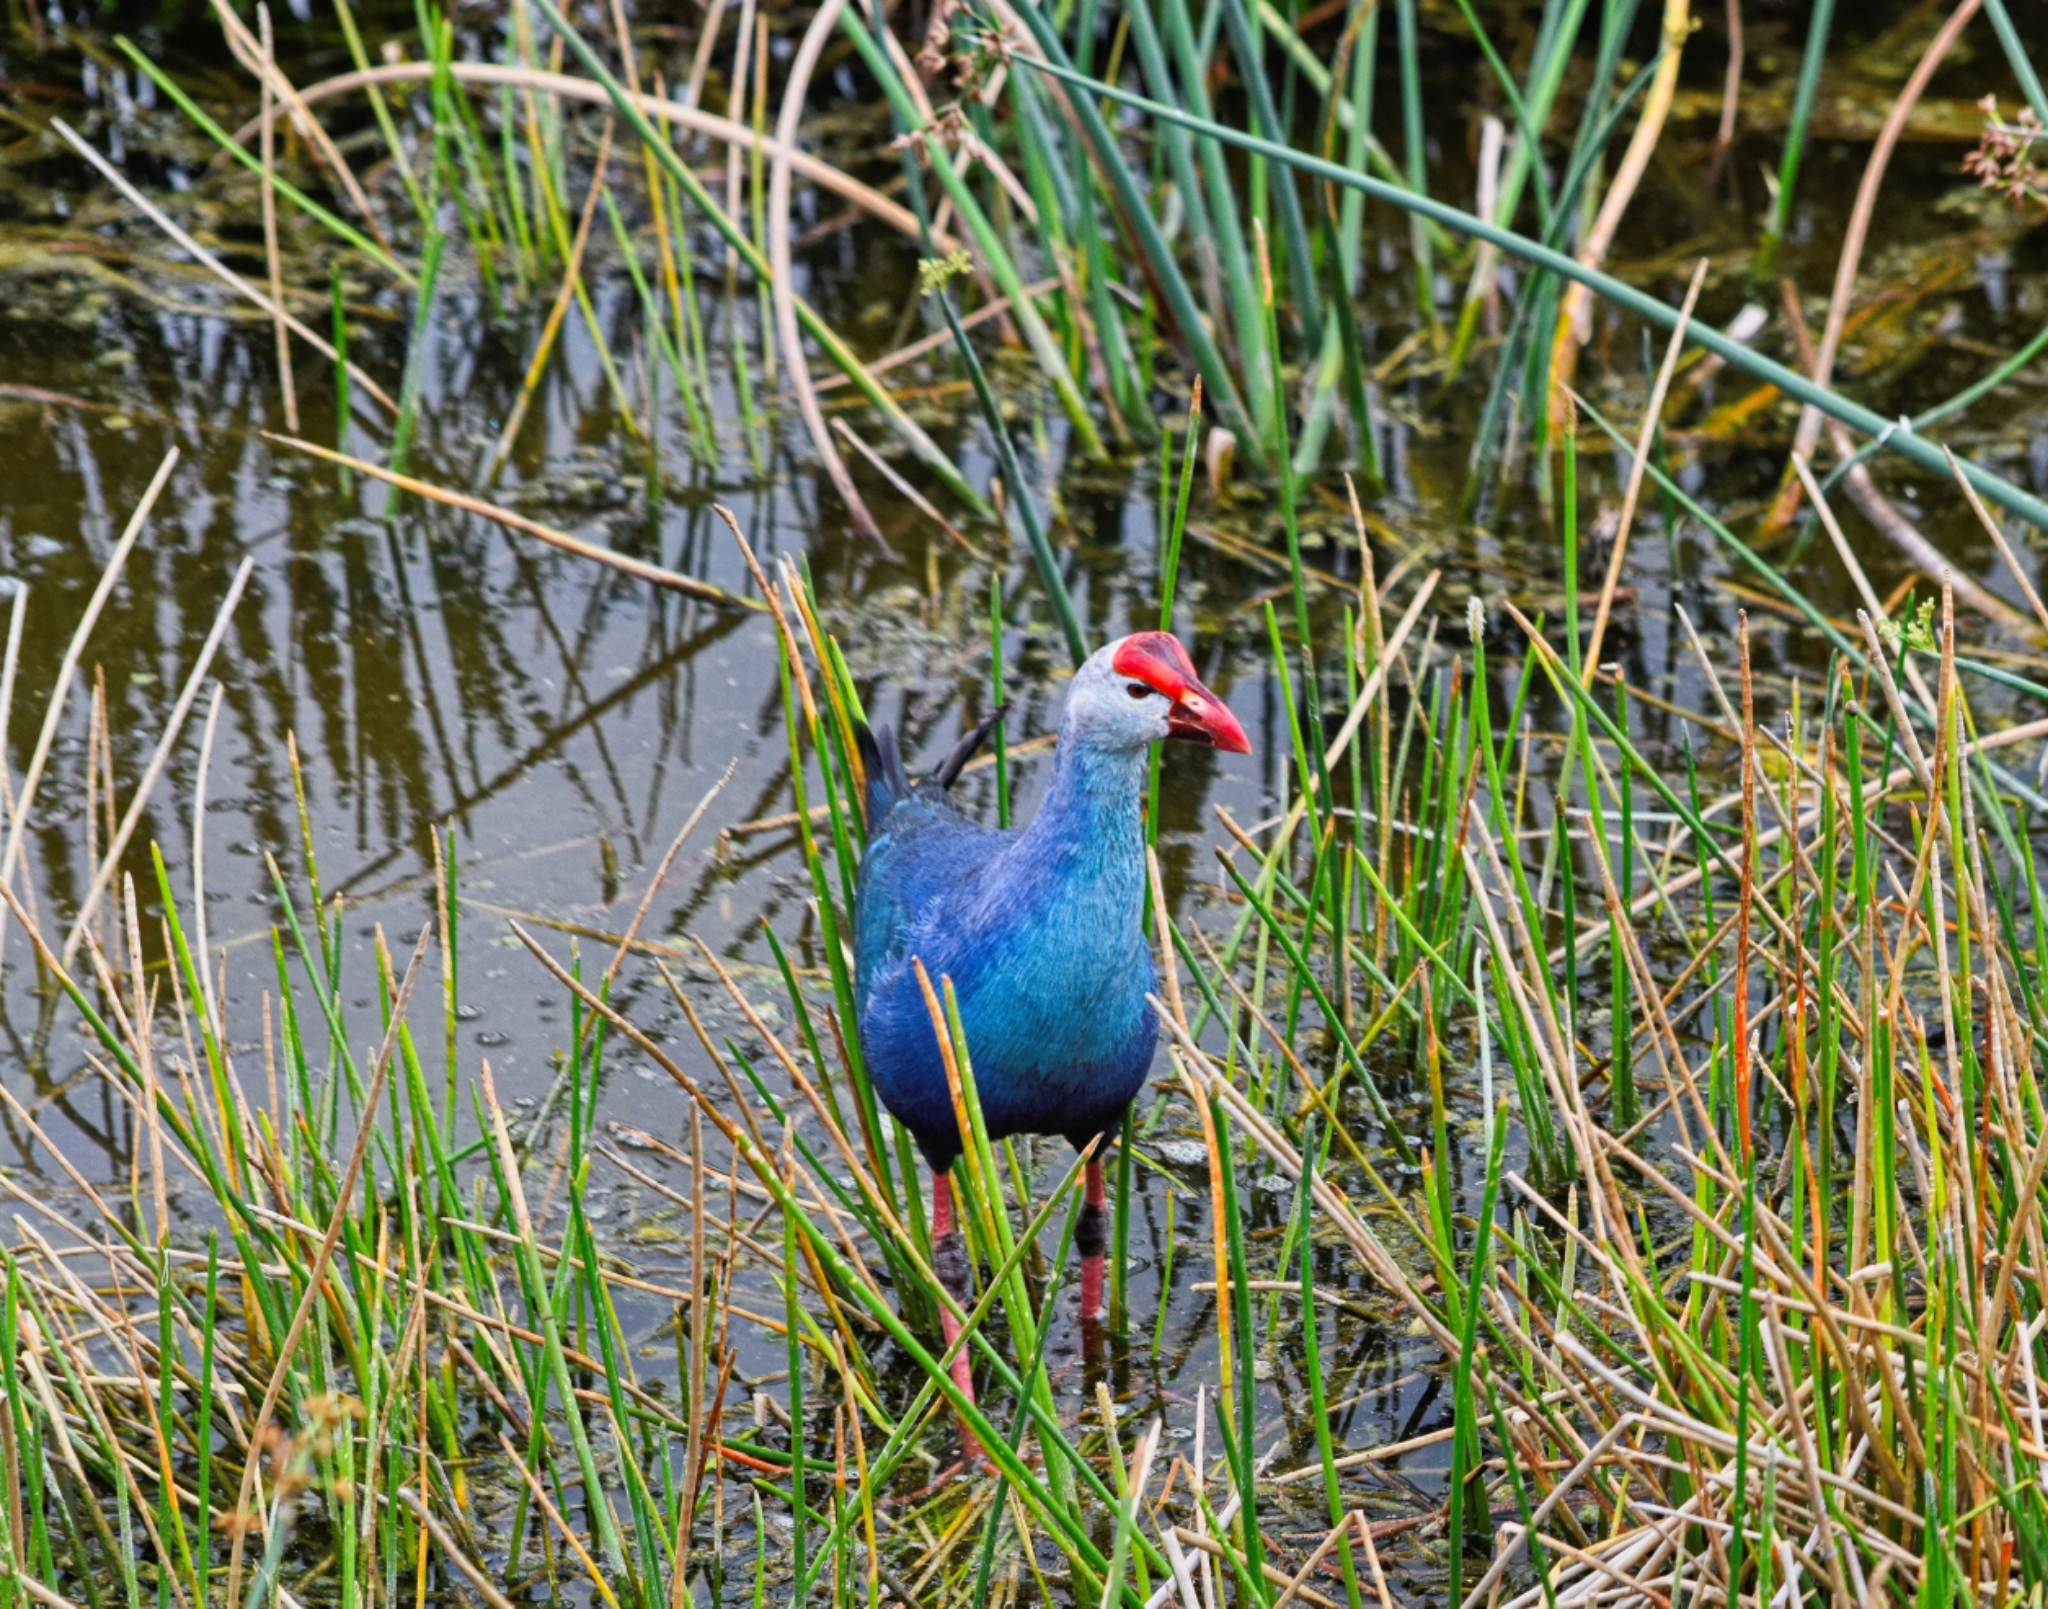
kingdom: Animalia
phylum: Chordata
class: Aves
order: Gruiformes
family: Rallidae
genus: Porphyrio
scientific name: Porphyrio porphyrio
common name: Purple swamphen
